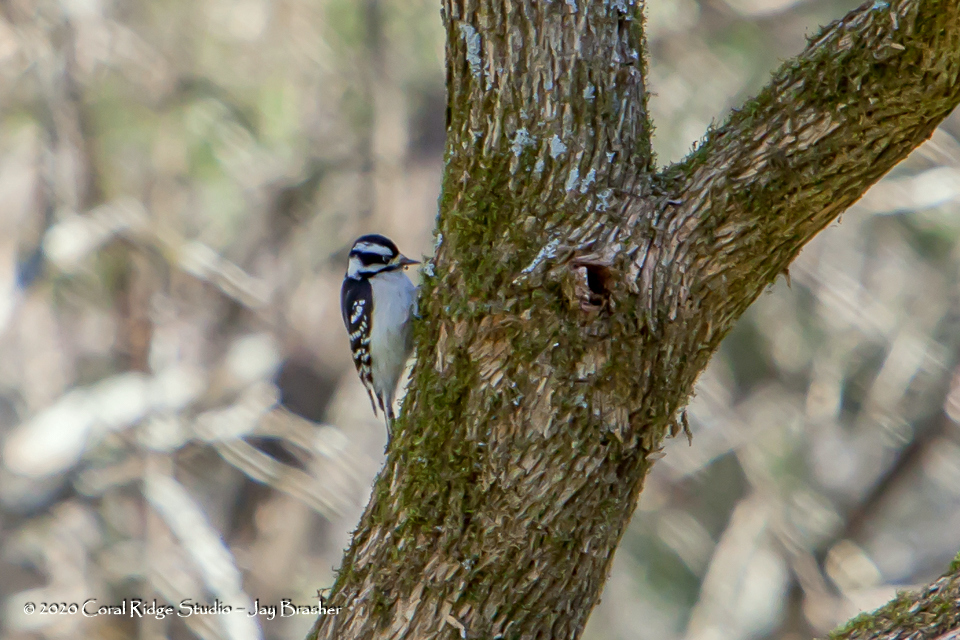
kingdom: Animalia
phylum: Chordata
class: Aves
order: Piciformes
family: Picidae
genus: Dryobates
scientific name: Dryobates pubescens
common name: Downy woodpecker
